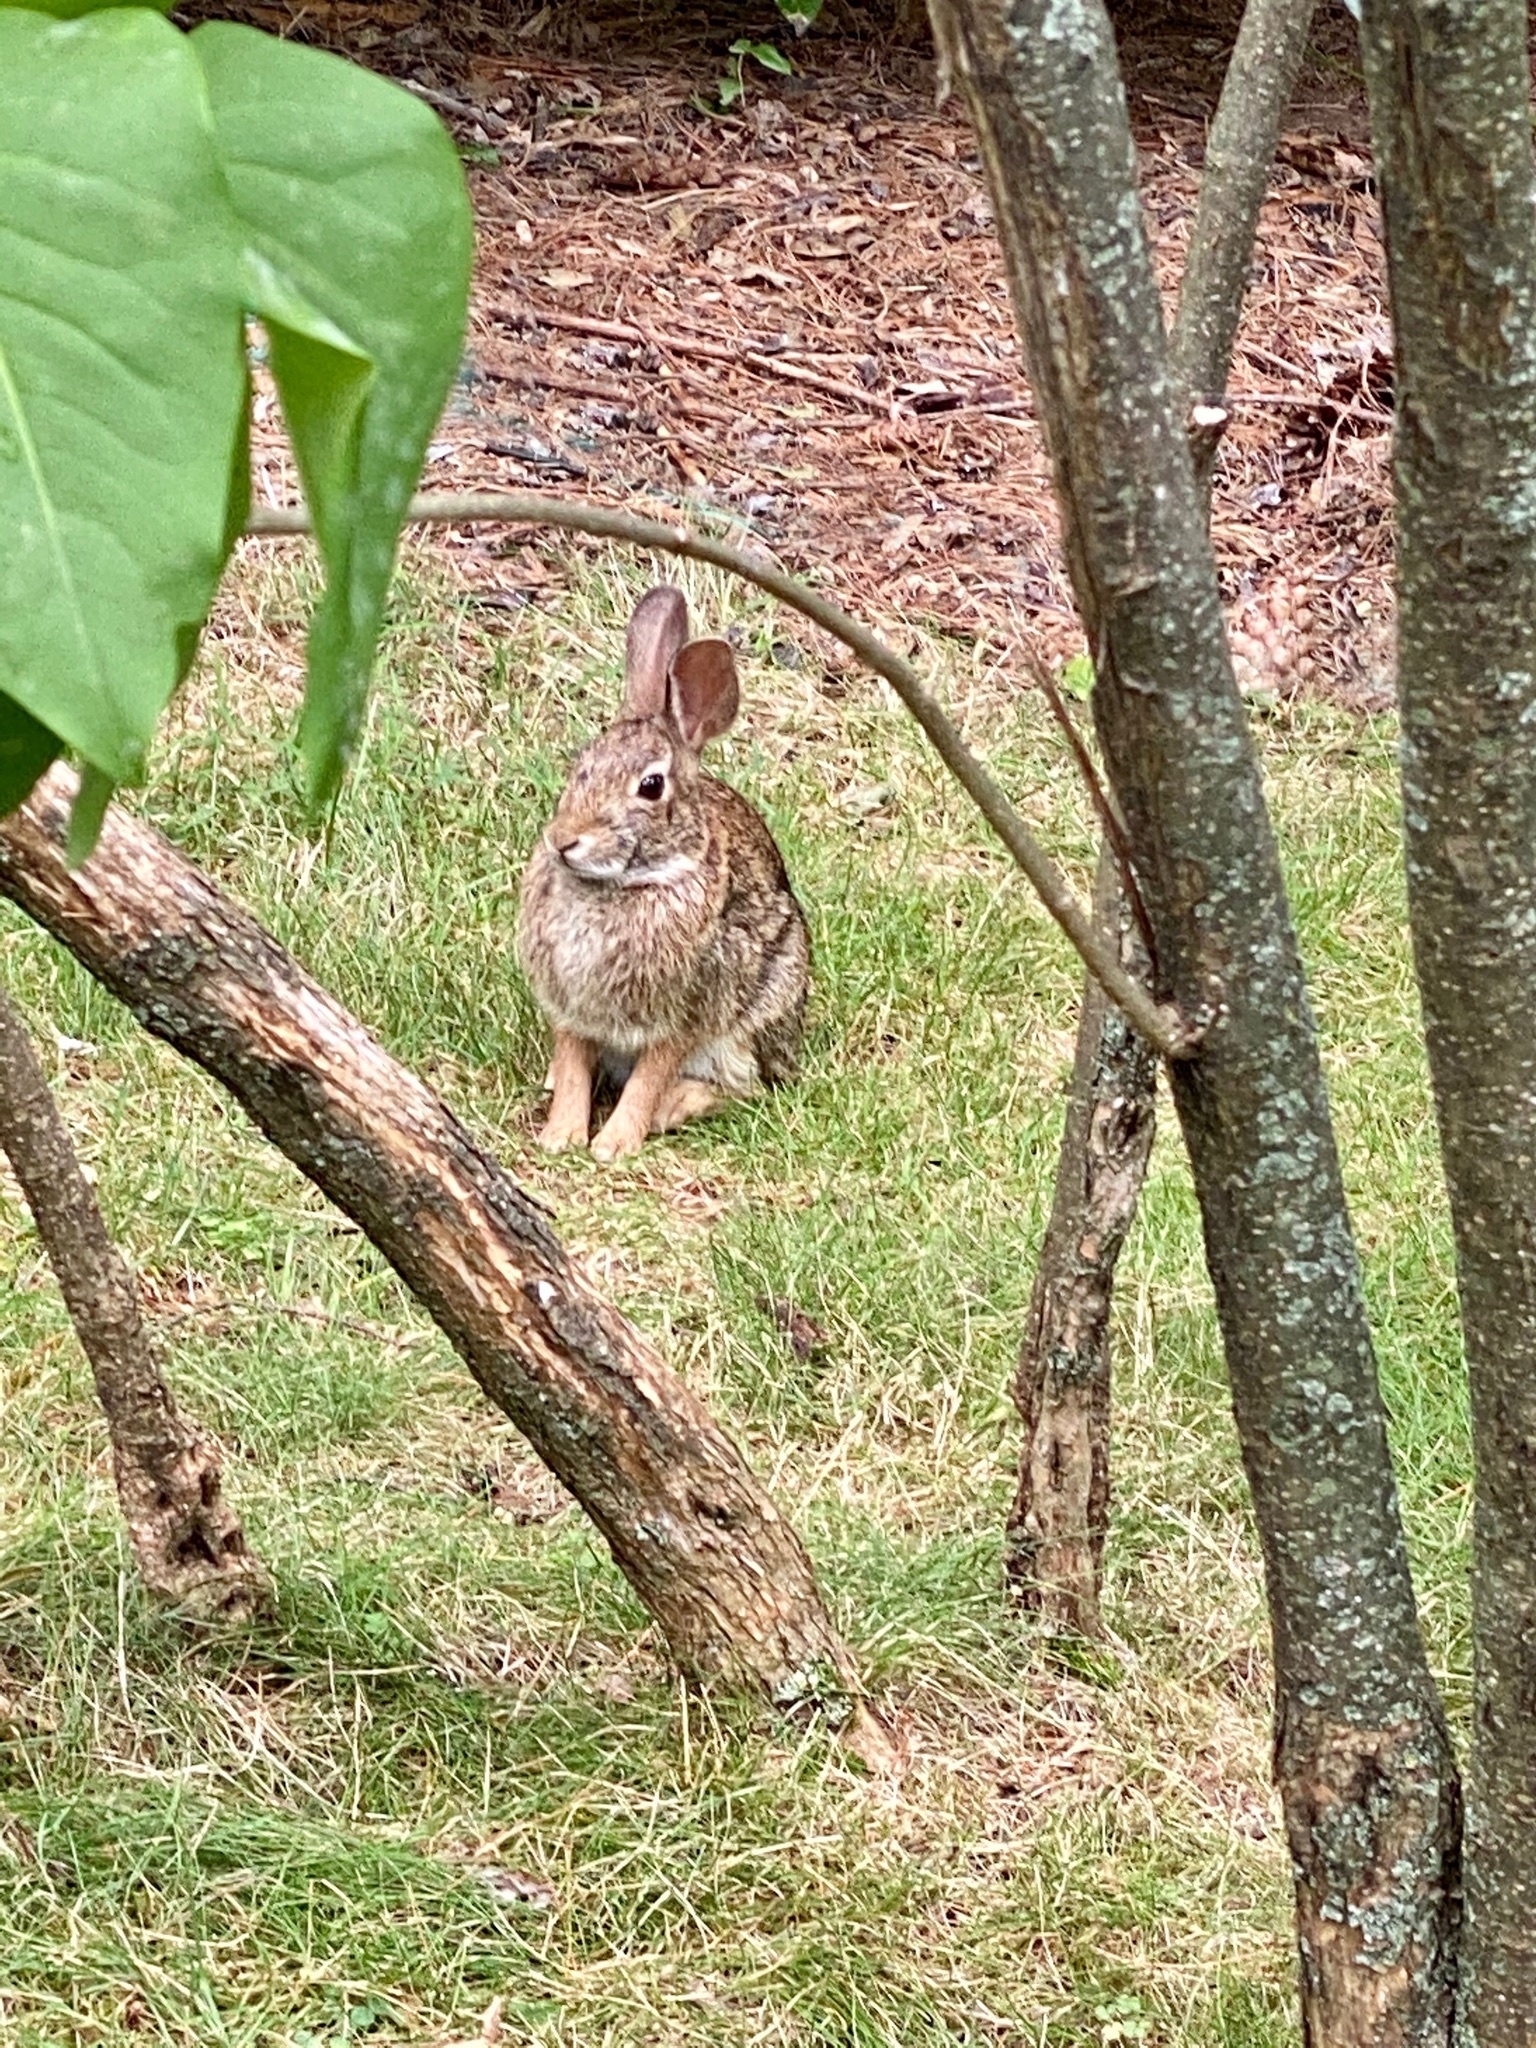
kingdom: Animalia
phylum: Chordata
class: Mammalia
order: Lagomorpha
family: Leporidae
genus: Sylvilagus
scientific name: Sylvilagus floridanus
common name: Eastern cottontail
